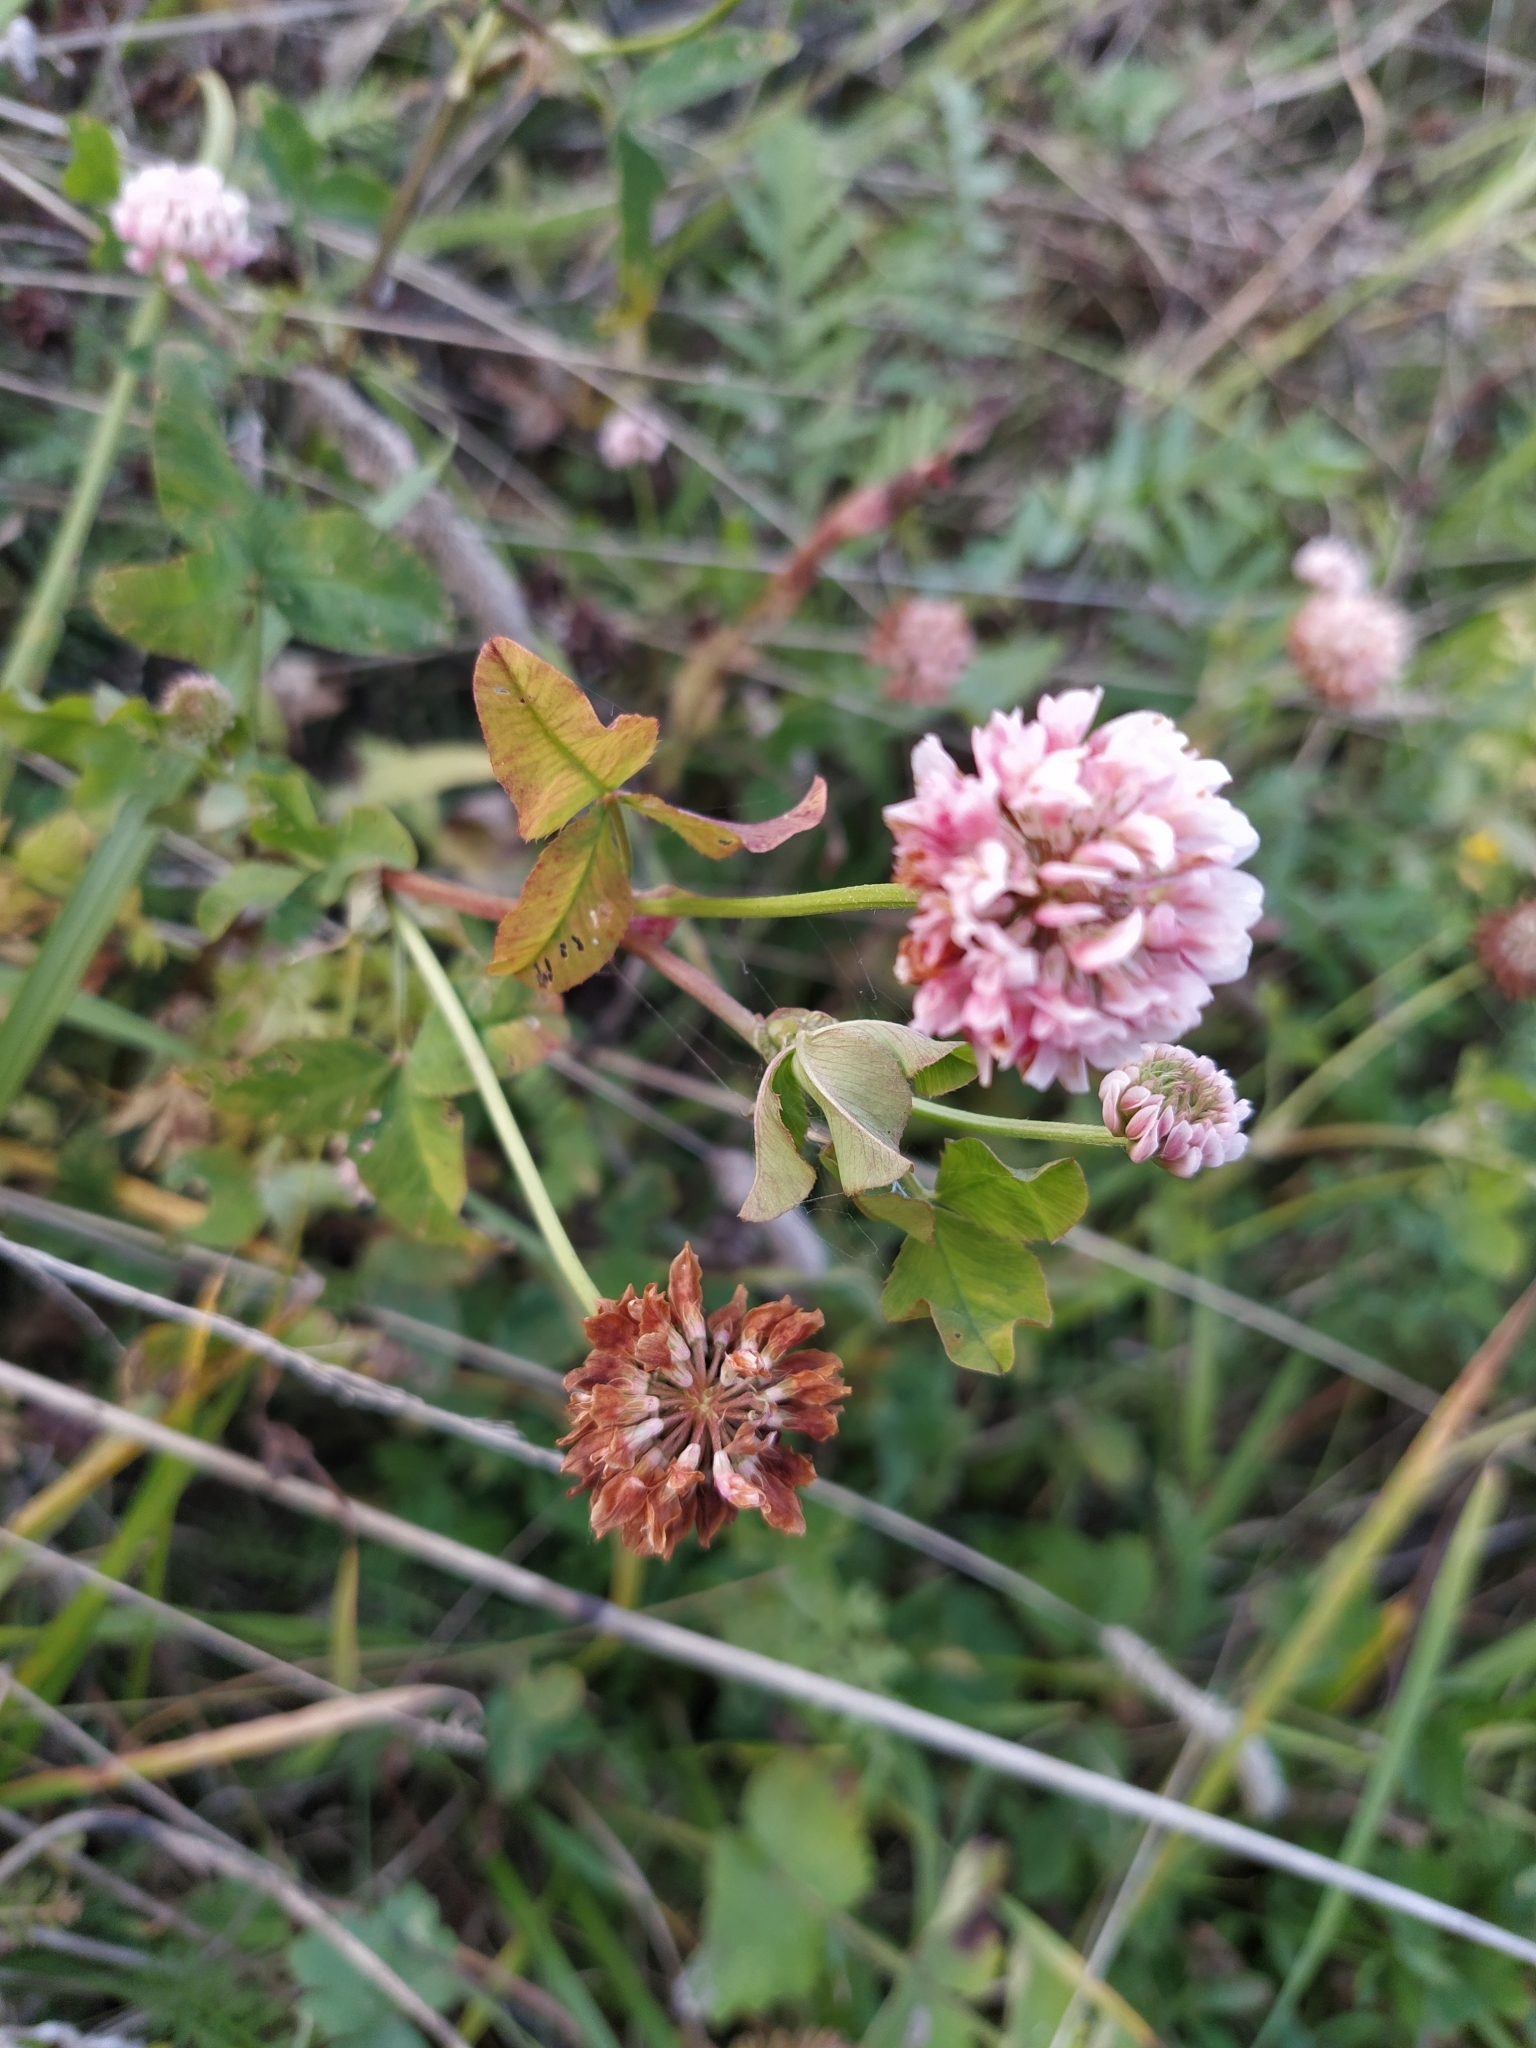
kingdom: Plantae
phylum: Tracheophyta
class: Magnoliopsida
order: Fabales
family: Fabaceae
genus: Trifolium
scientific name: Trifolium hybridum
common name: Alsike clover
